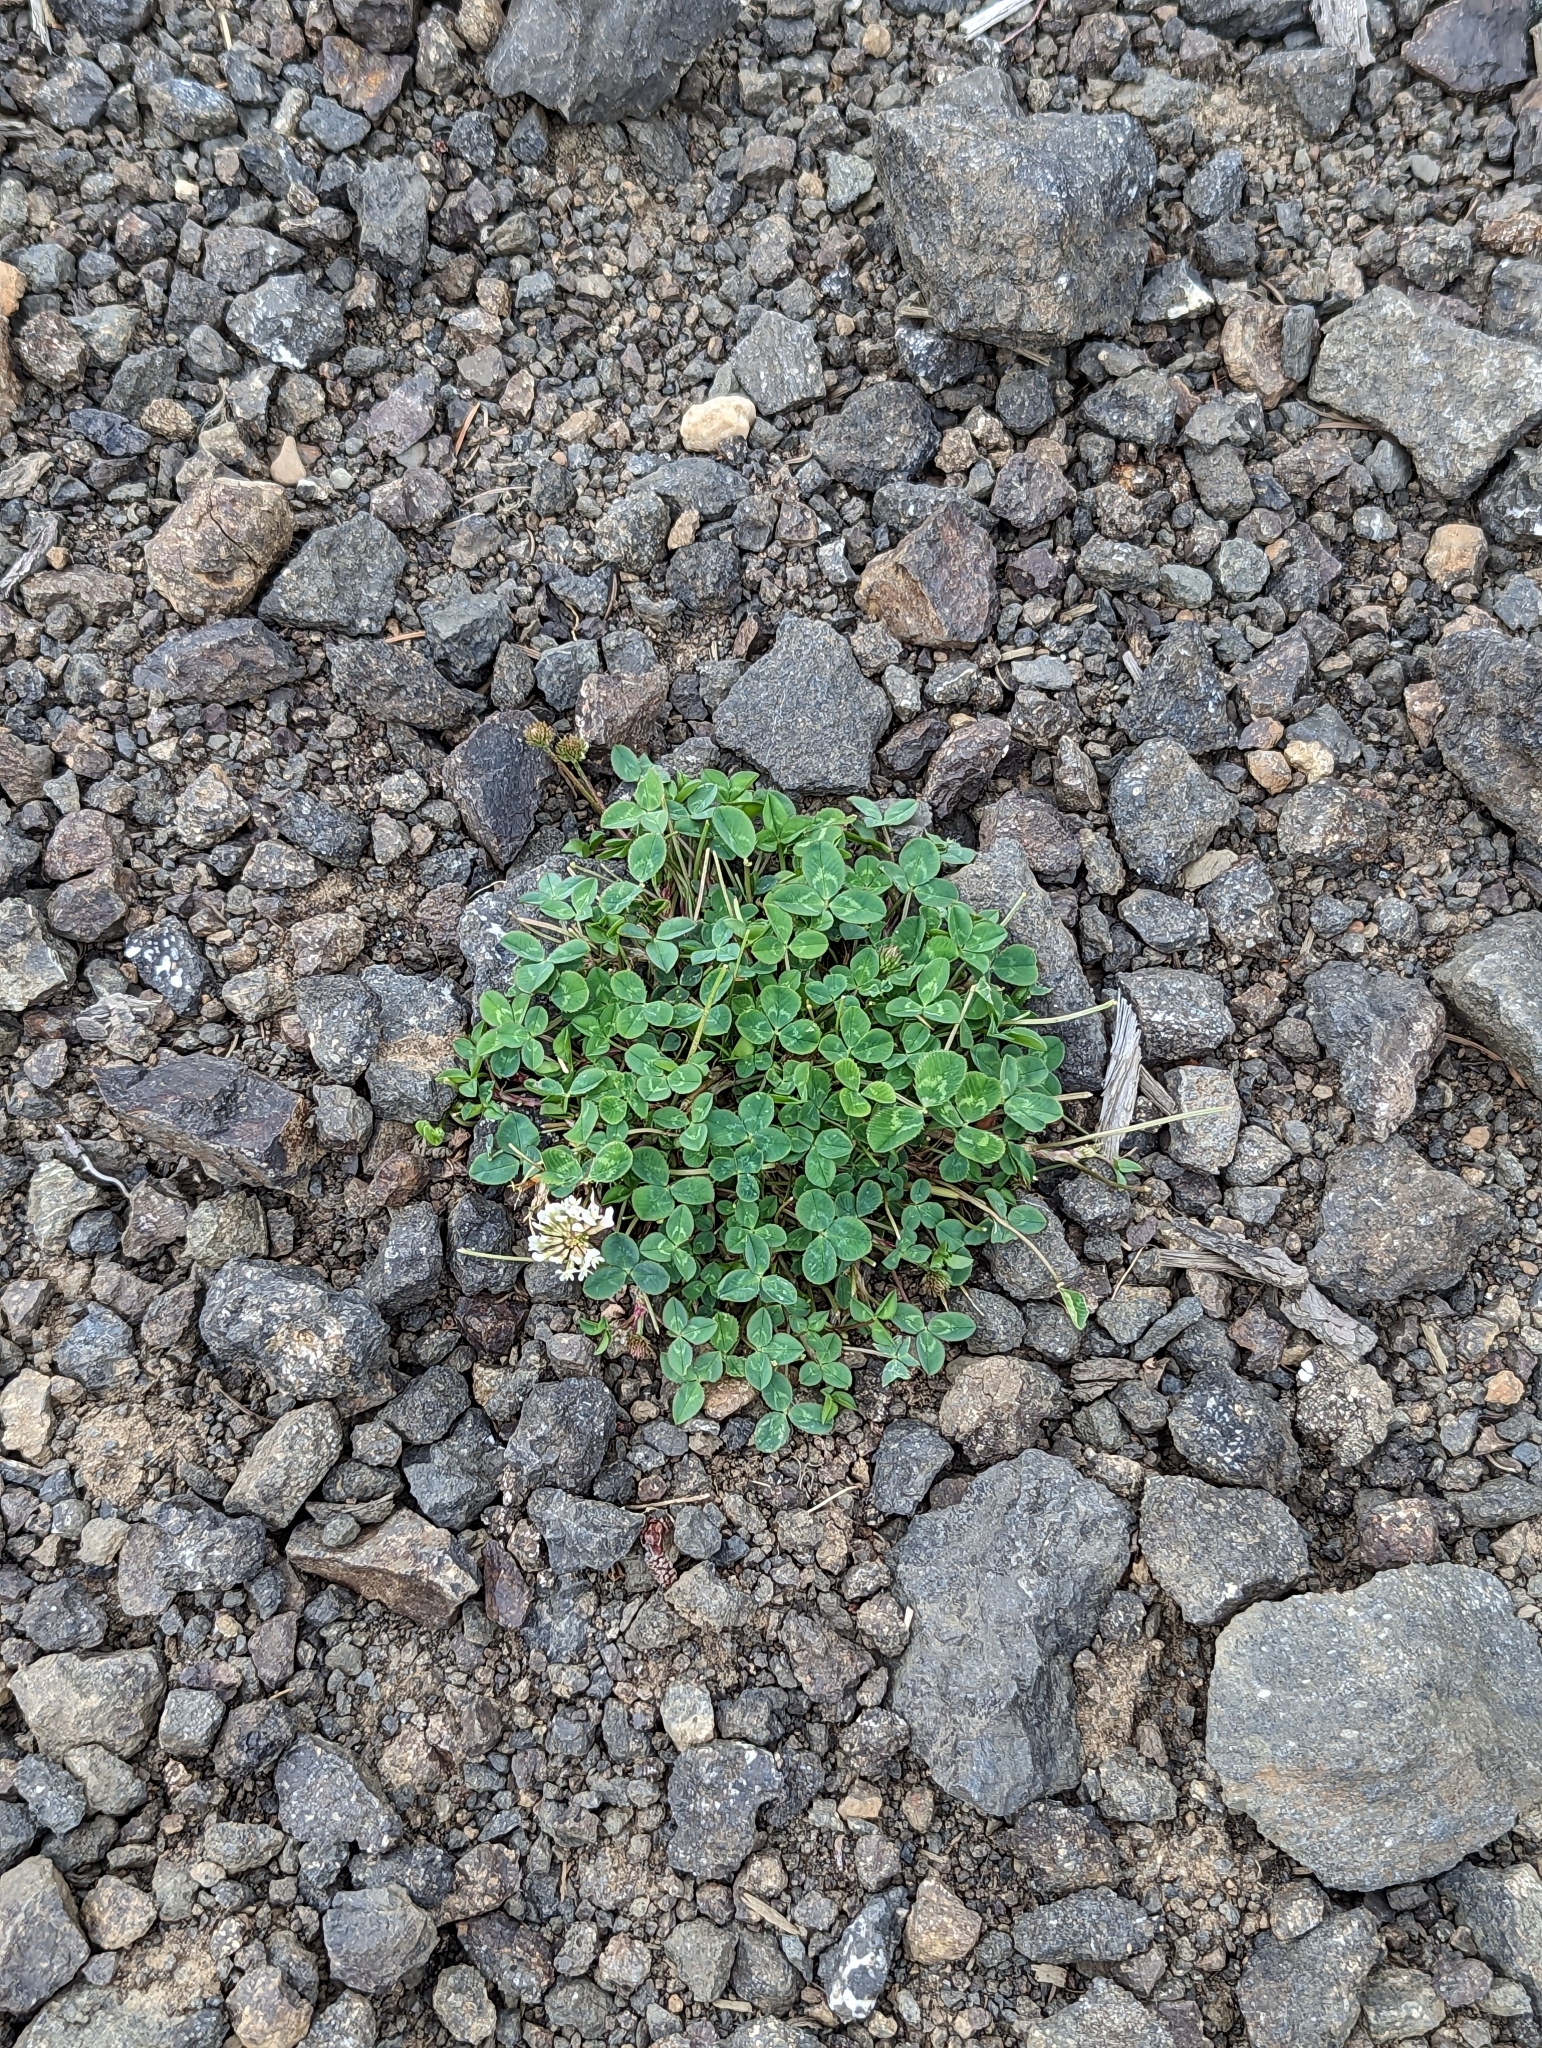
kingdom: Plantae
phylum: Tracheophyta
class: Magnoliopsida
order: Fabales
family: Fabaceae
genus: Trifolium
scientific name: Trifolium repens
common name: White clover
